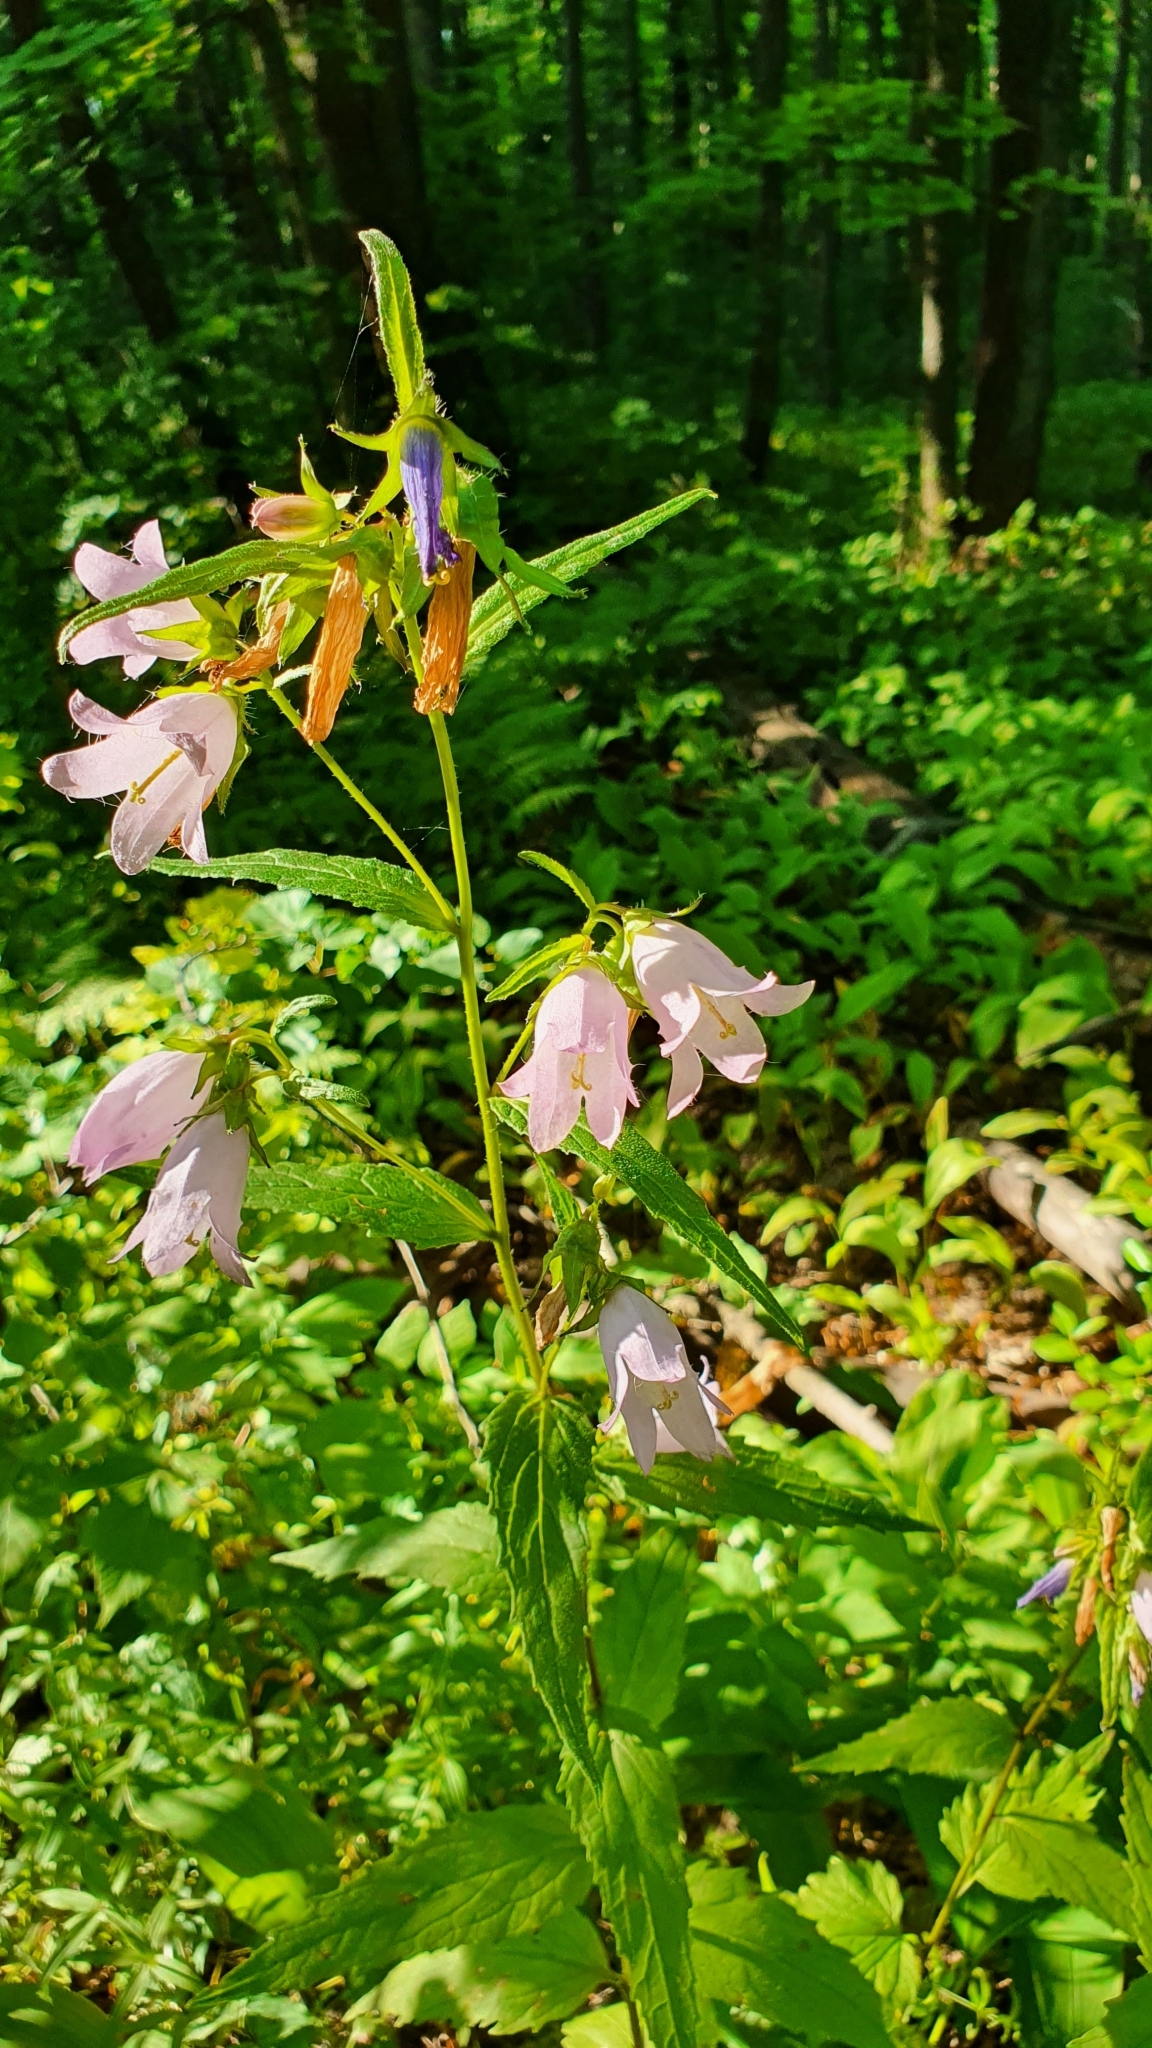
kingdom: Plantae
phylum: Tracheophyta
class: Magnoliopsida
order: Asterales
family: Campanulaceae
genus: Campanula
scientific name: Campanula trachelium
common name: Nettle-leaved bellflower
